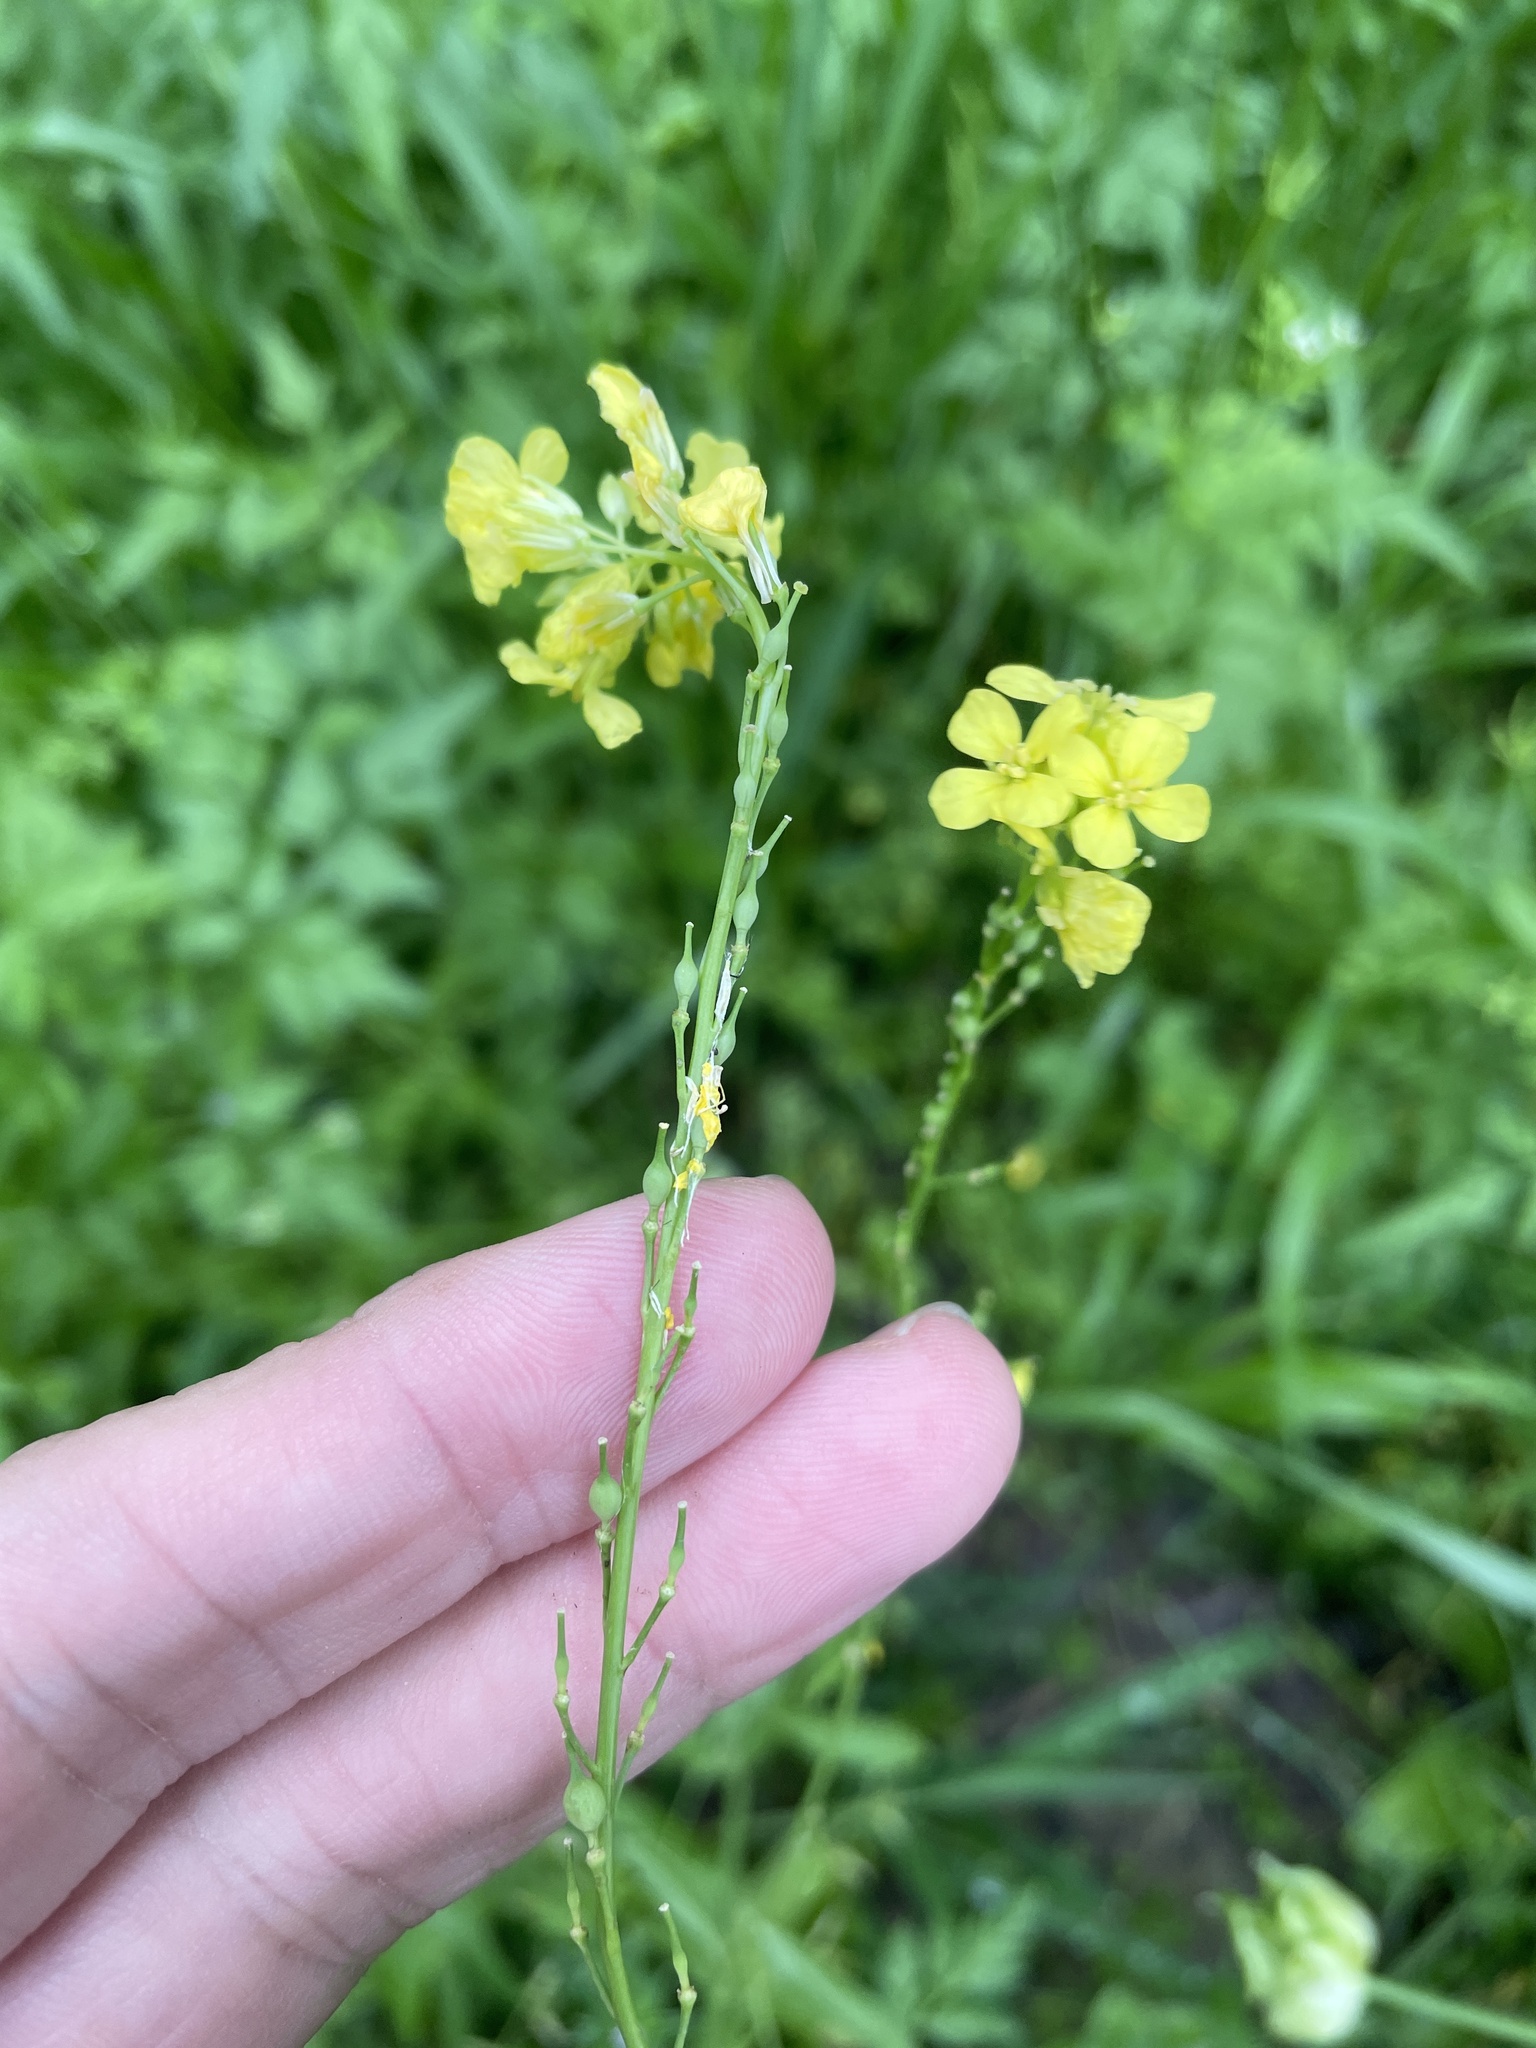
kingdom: Plantae
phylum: Tracheophyta
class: Magnoliopsida
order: Brassicales
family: Brassicaceae
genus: Rapistrum
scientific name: Rapistrum rugosum
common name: Annual bastardcabbage
